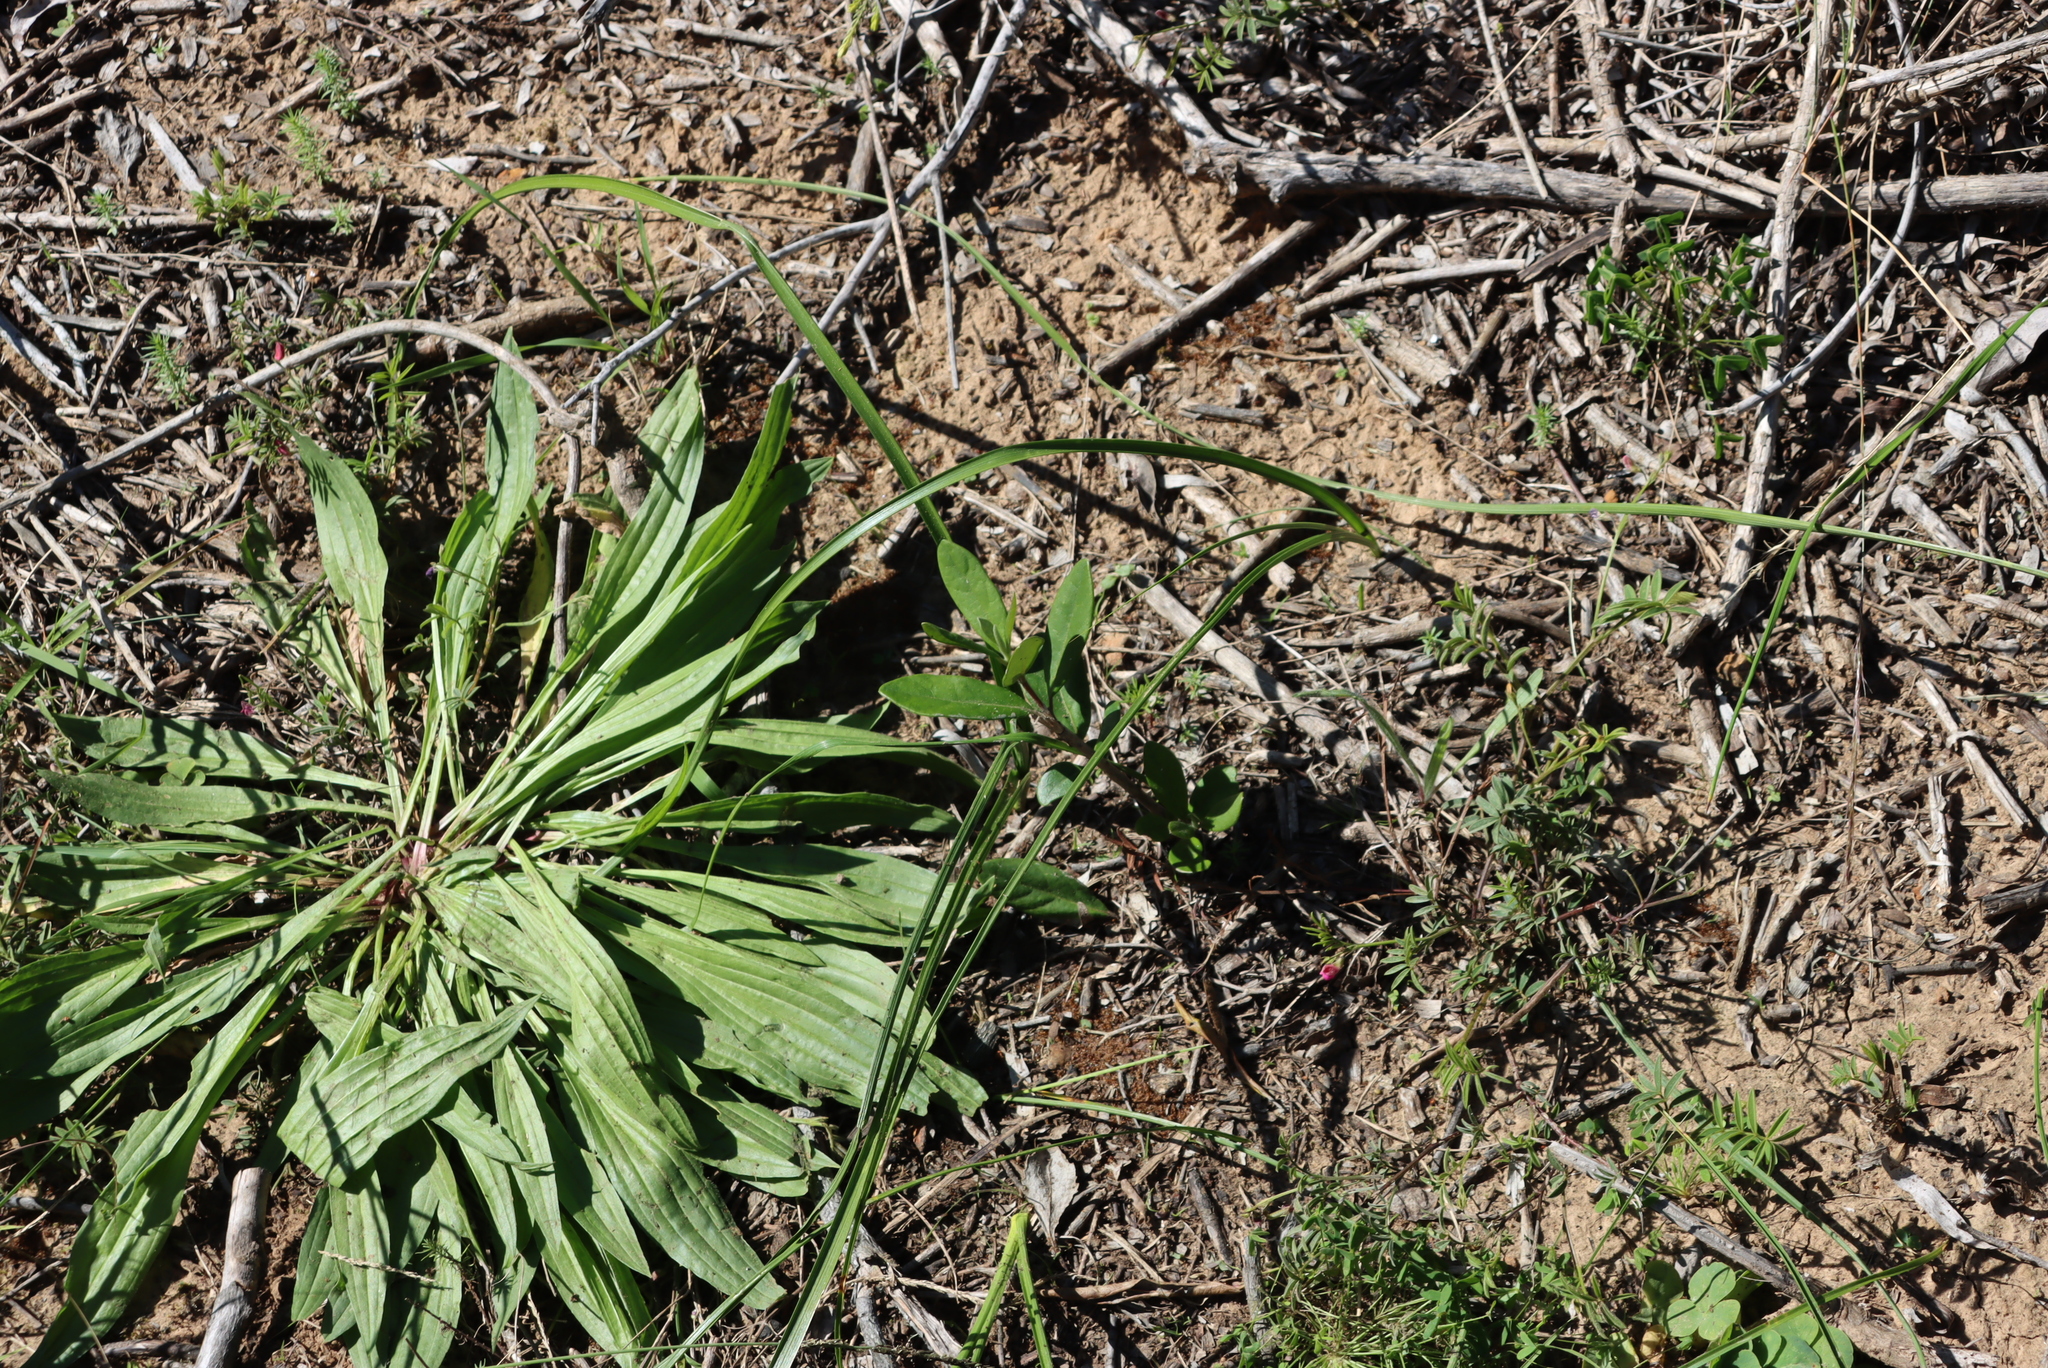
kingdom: Plantae
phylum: Tracheophyta
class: Magnoliopsida
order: Lamiales
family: Plantaginaceae
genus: Plantago
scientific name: Plantago lanceolata
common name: Ribwort plantain
